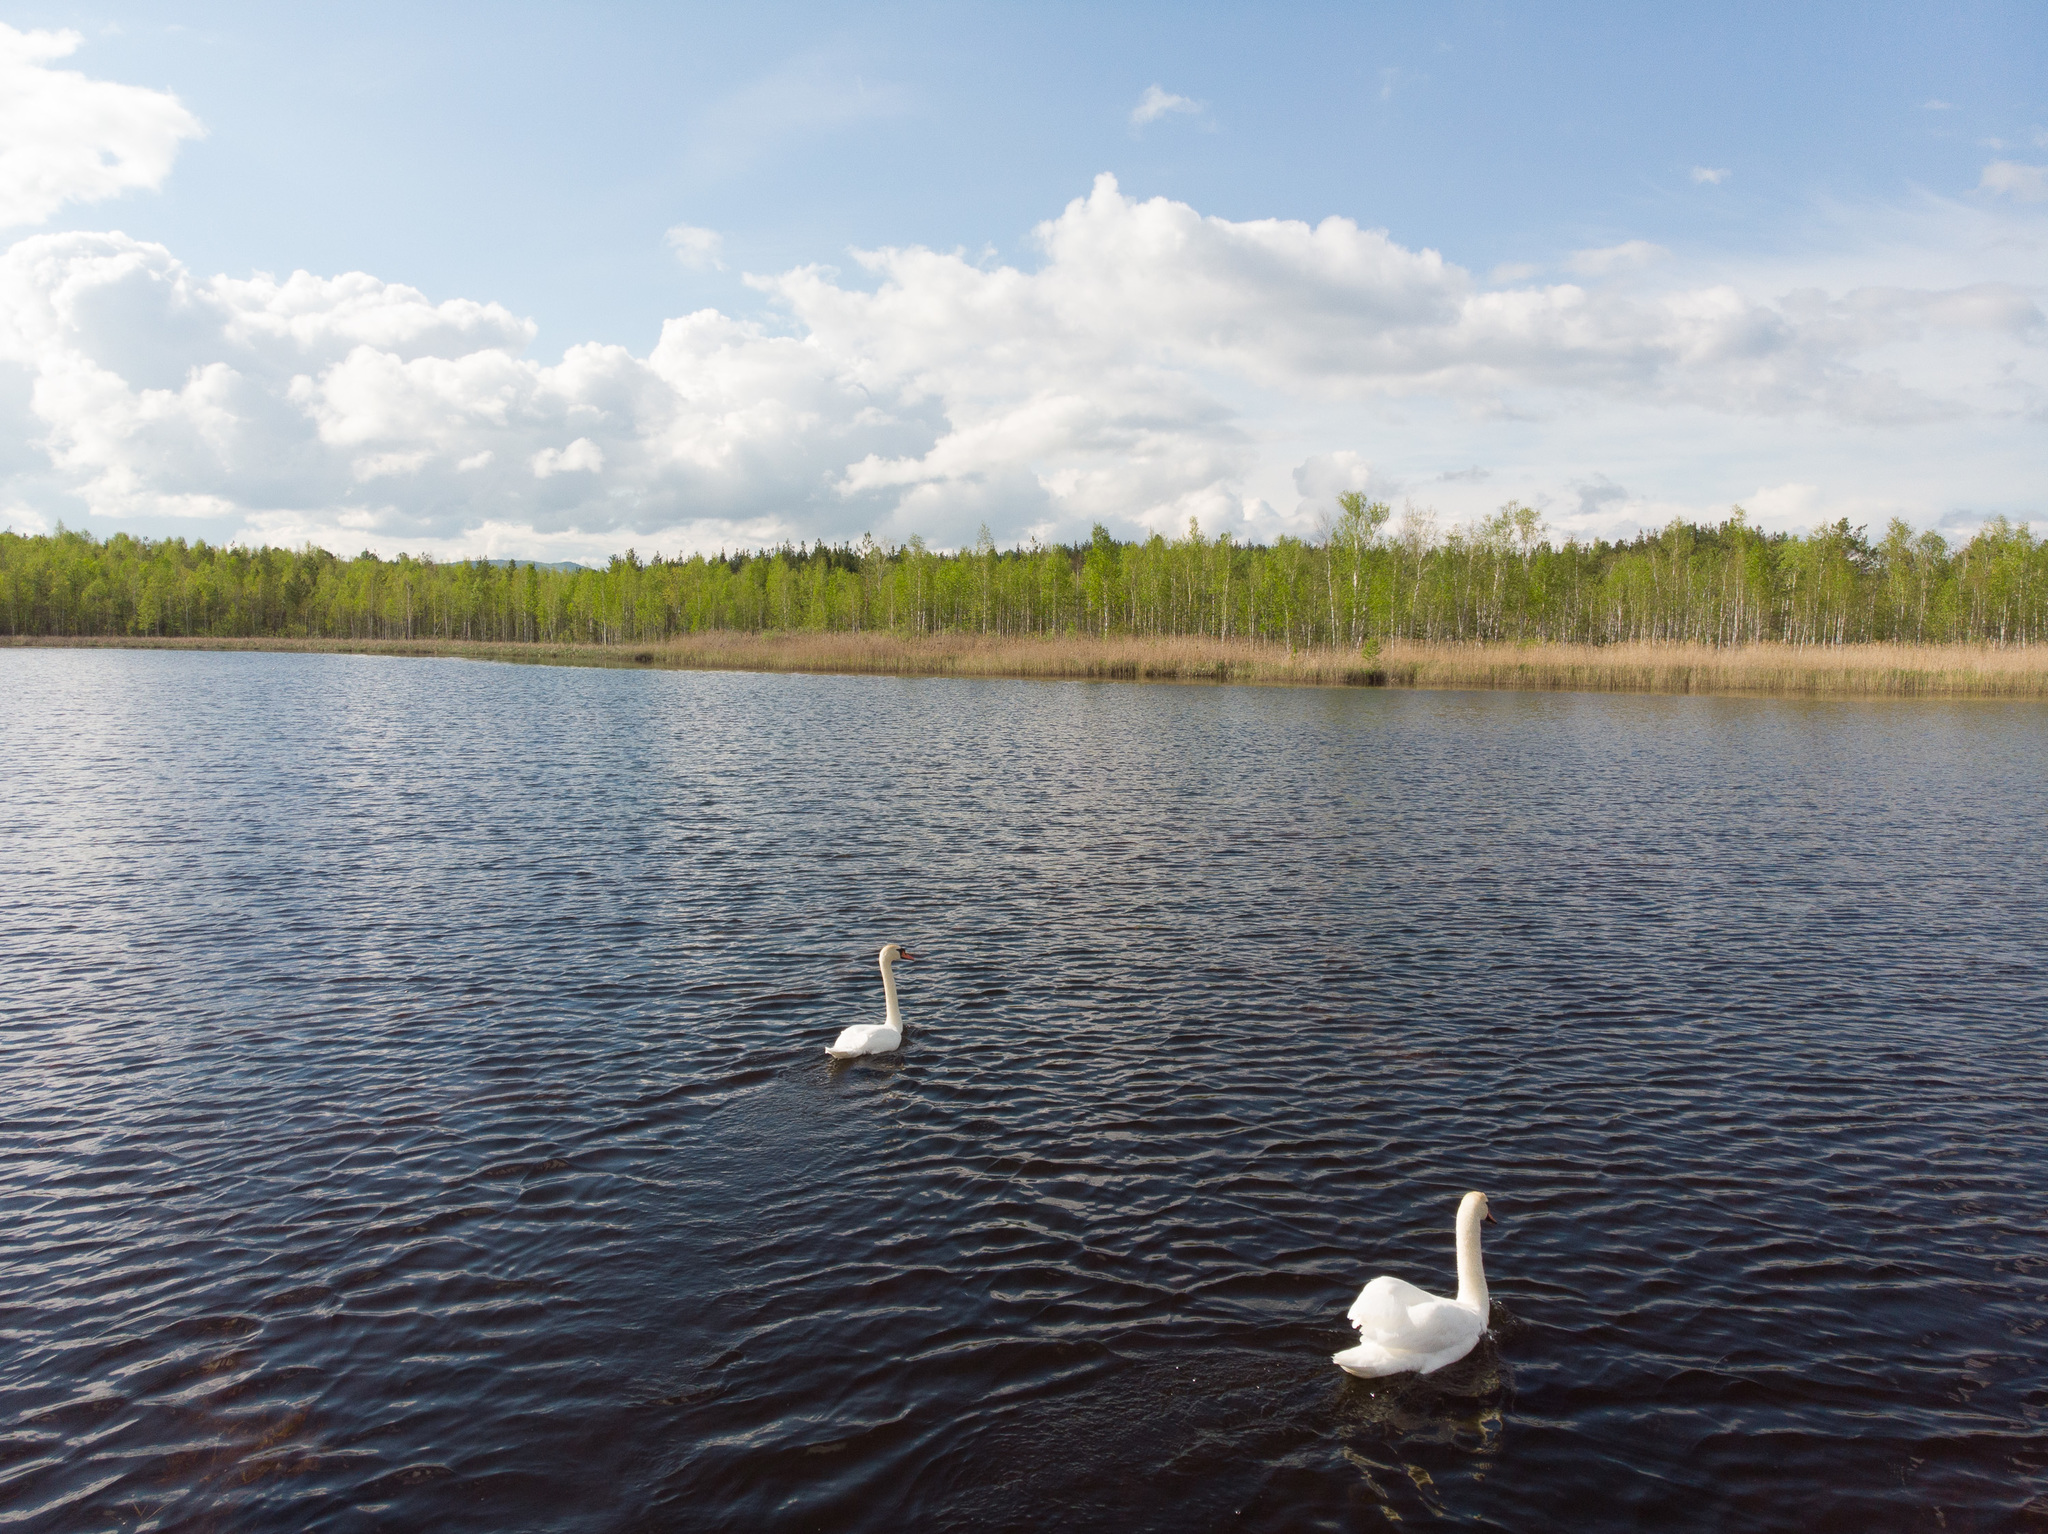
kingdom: Animalia
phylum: Chordata
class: Aves
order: Anseriformes
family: Anatidae
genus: Cygnus
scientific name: Cygnus olor
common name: Mute swan
